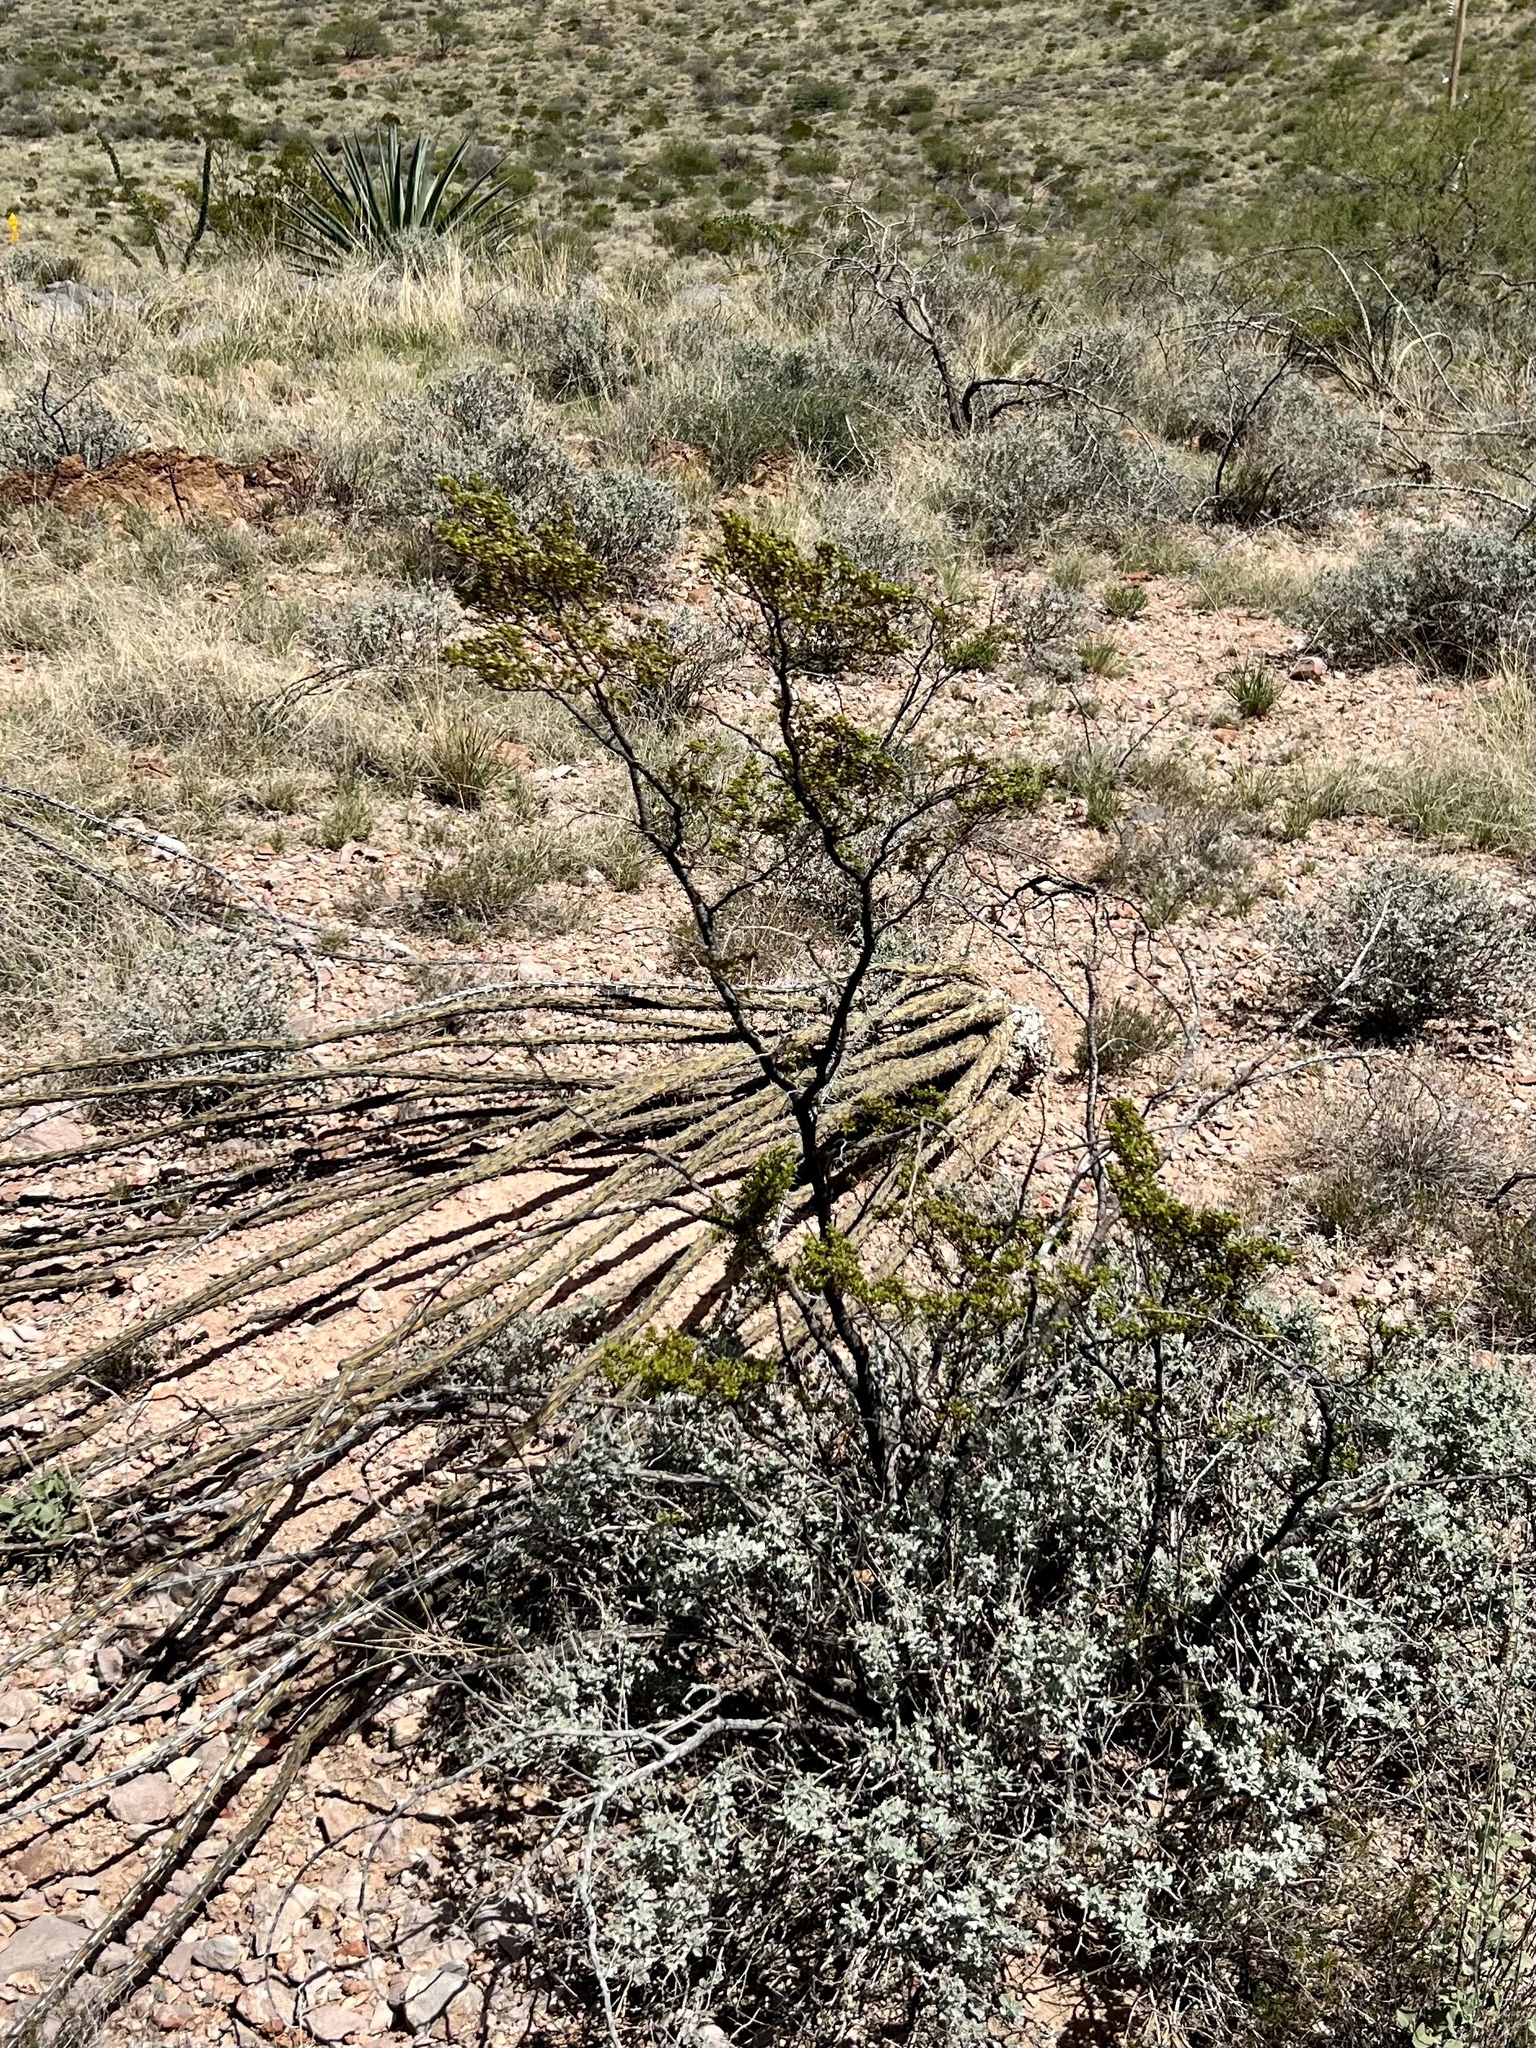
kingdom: Plantae
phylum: Tracheophyta
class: Magnoliopsida
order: Zygophyllales
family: Zygophyllaceae
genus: Larrea
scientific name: Larrea tridentata
